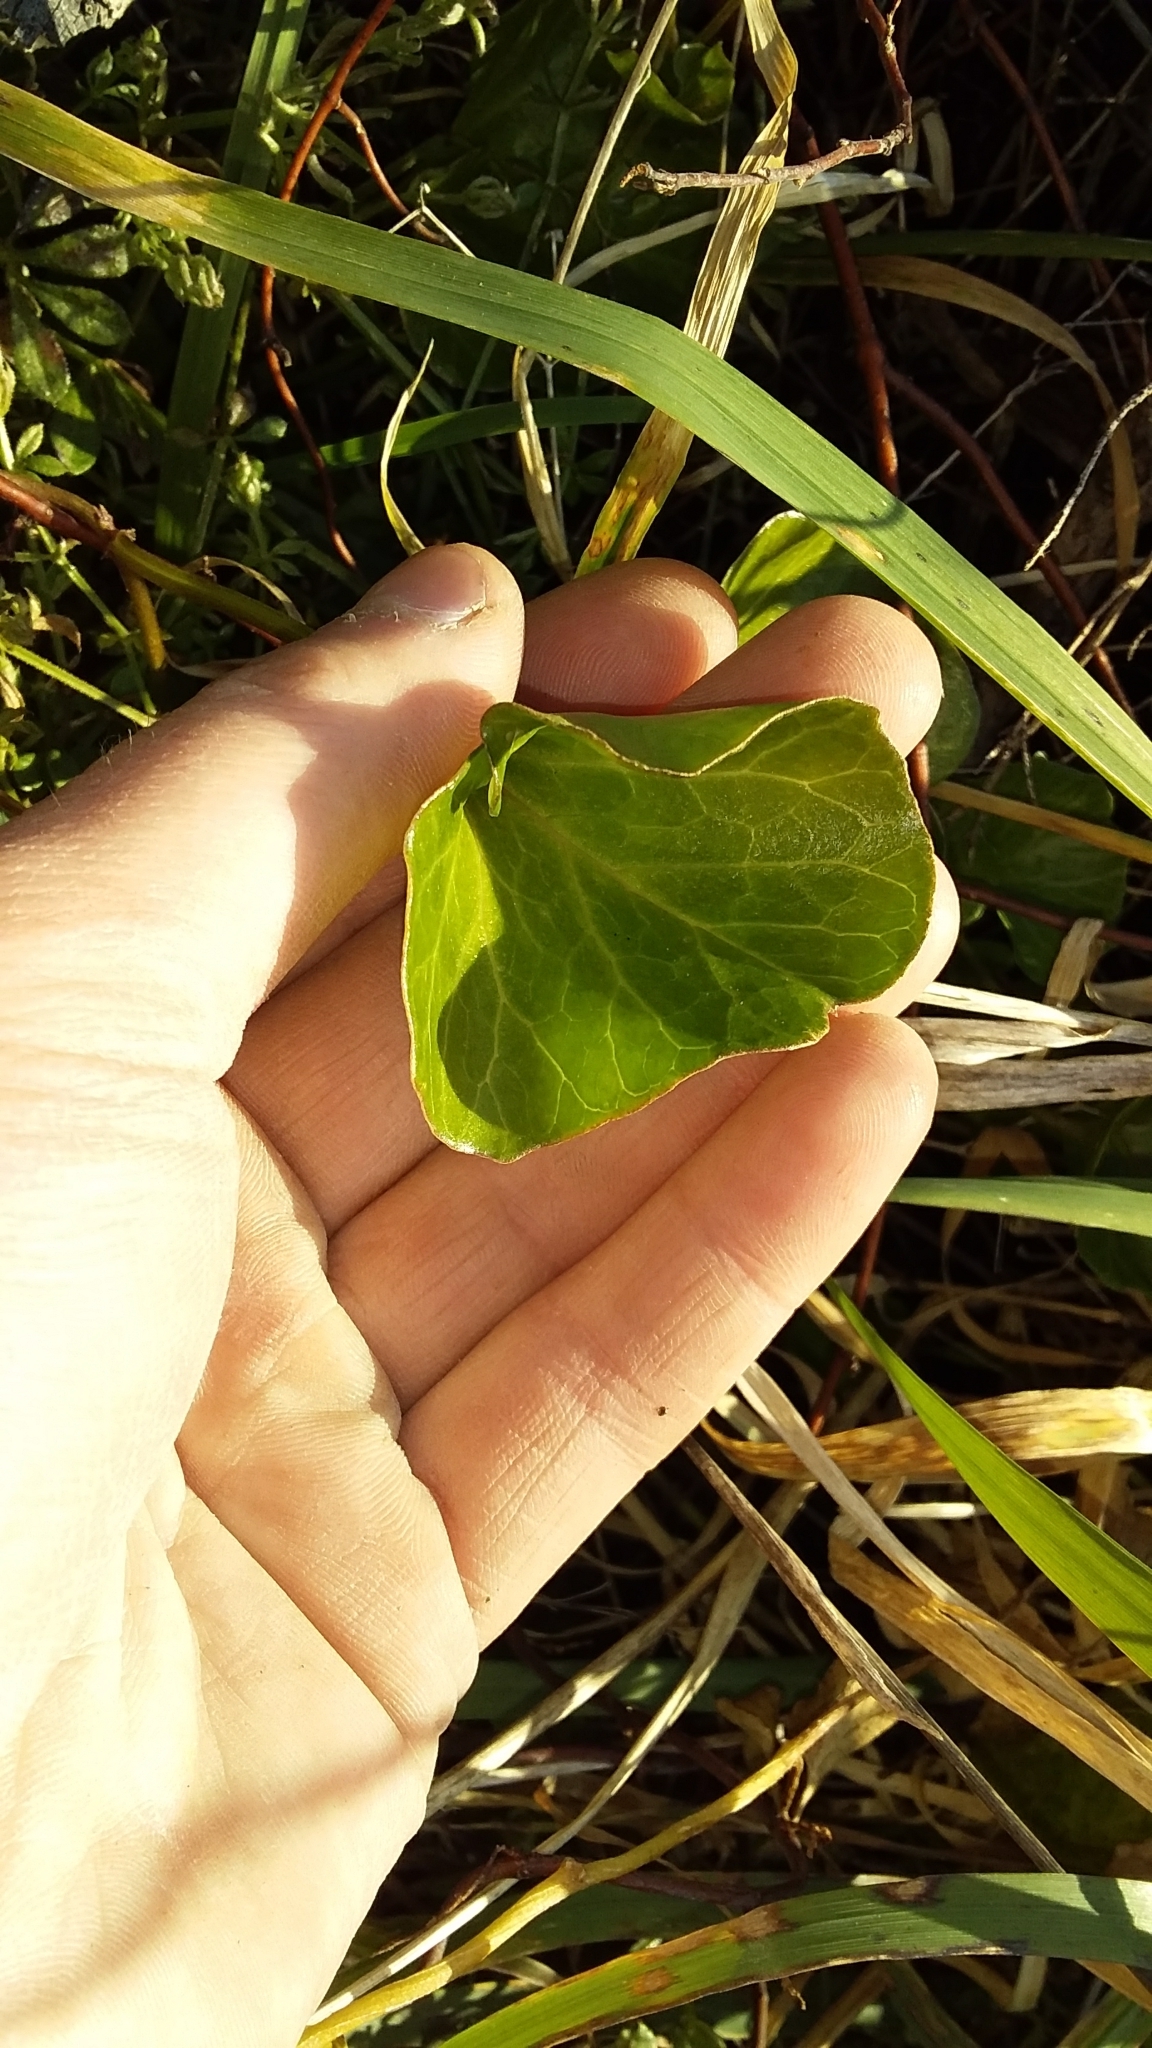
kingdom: Plantae
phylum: Tracheophyta
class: Magnoliopsida
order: Solanales
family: Convolvulaceae
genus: Calystegia
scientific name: Calystegia soldanella
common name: Sea bindweed
